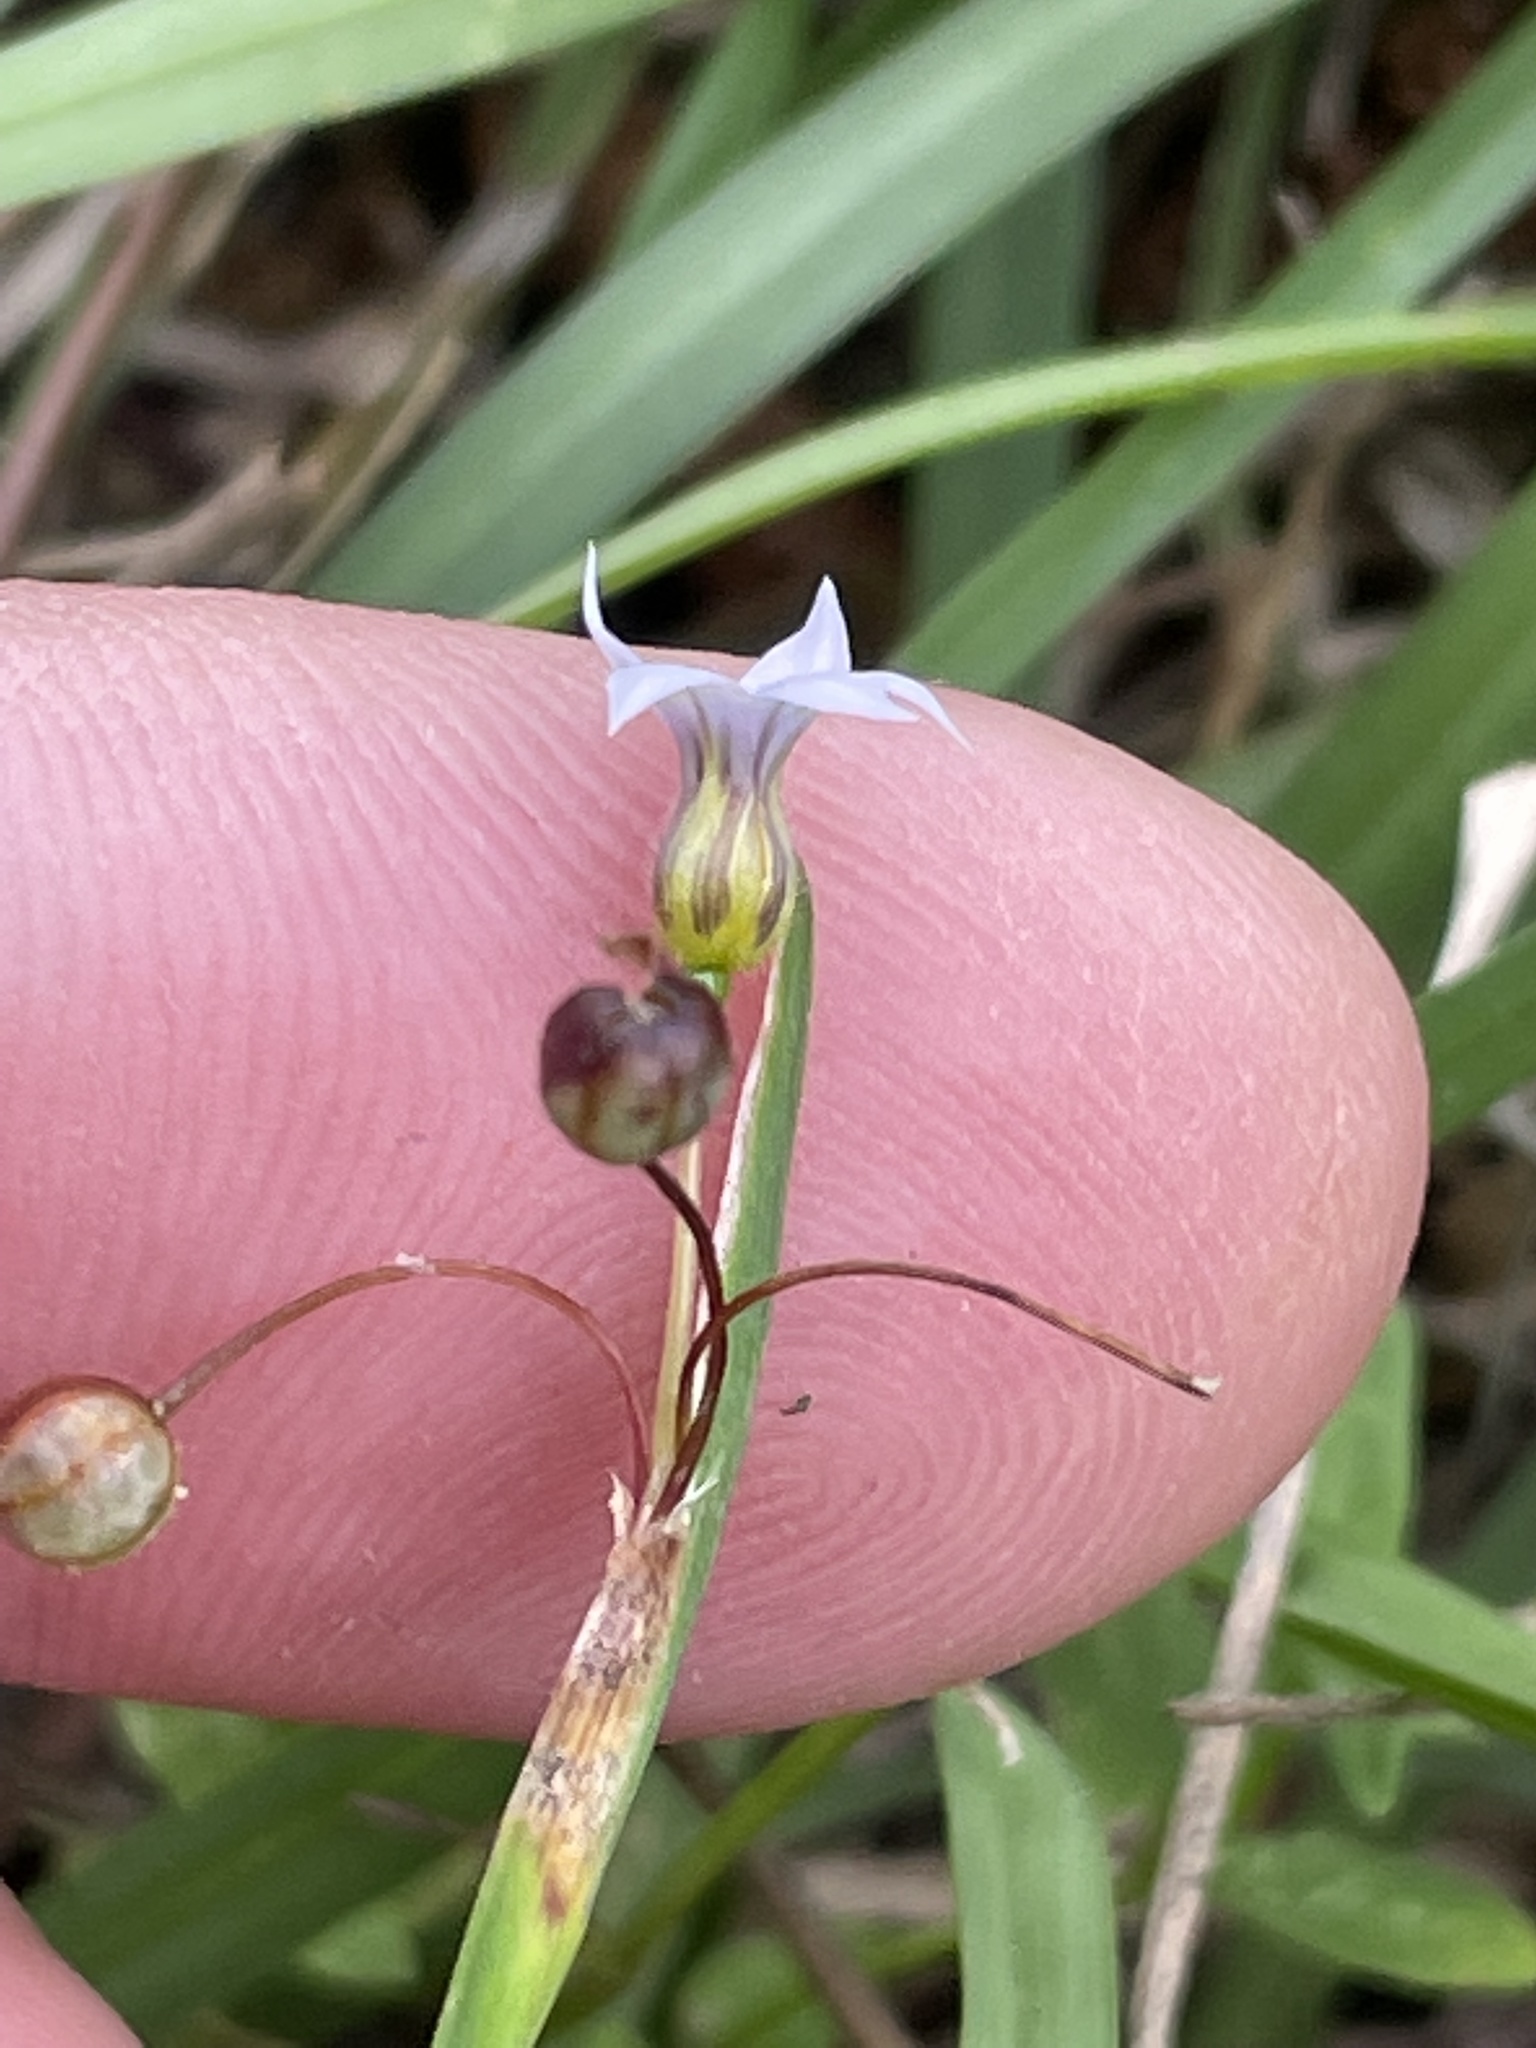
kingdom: Plantae
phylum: Tracheophyta
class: Liliopsida
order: Asparagales
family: Iridaceae
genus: Sisyrinchium
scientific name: Sisyrinchium micranthum
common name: Bermuda pigroot
